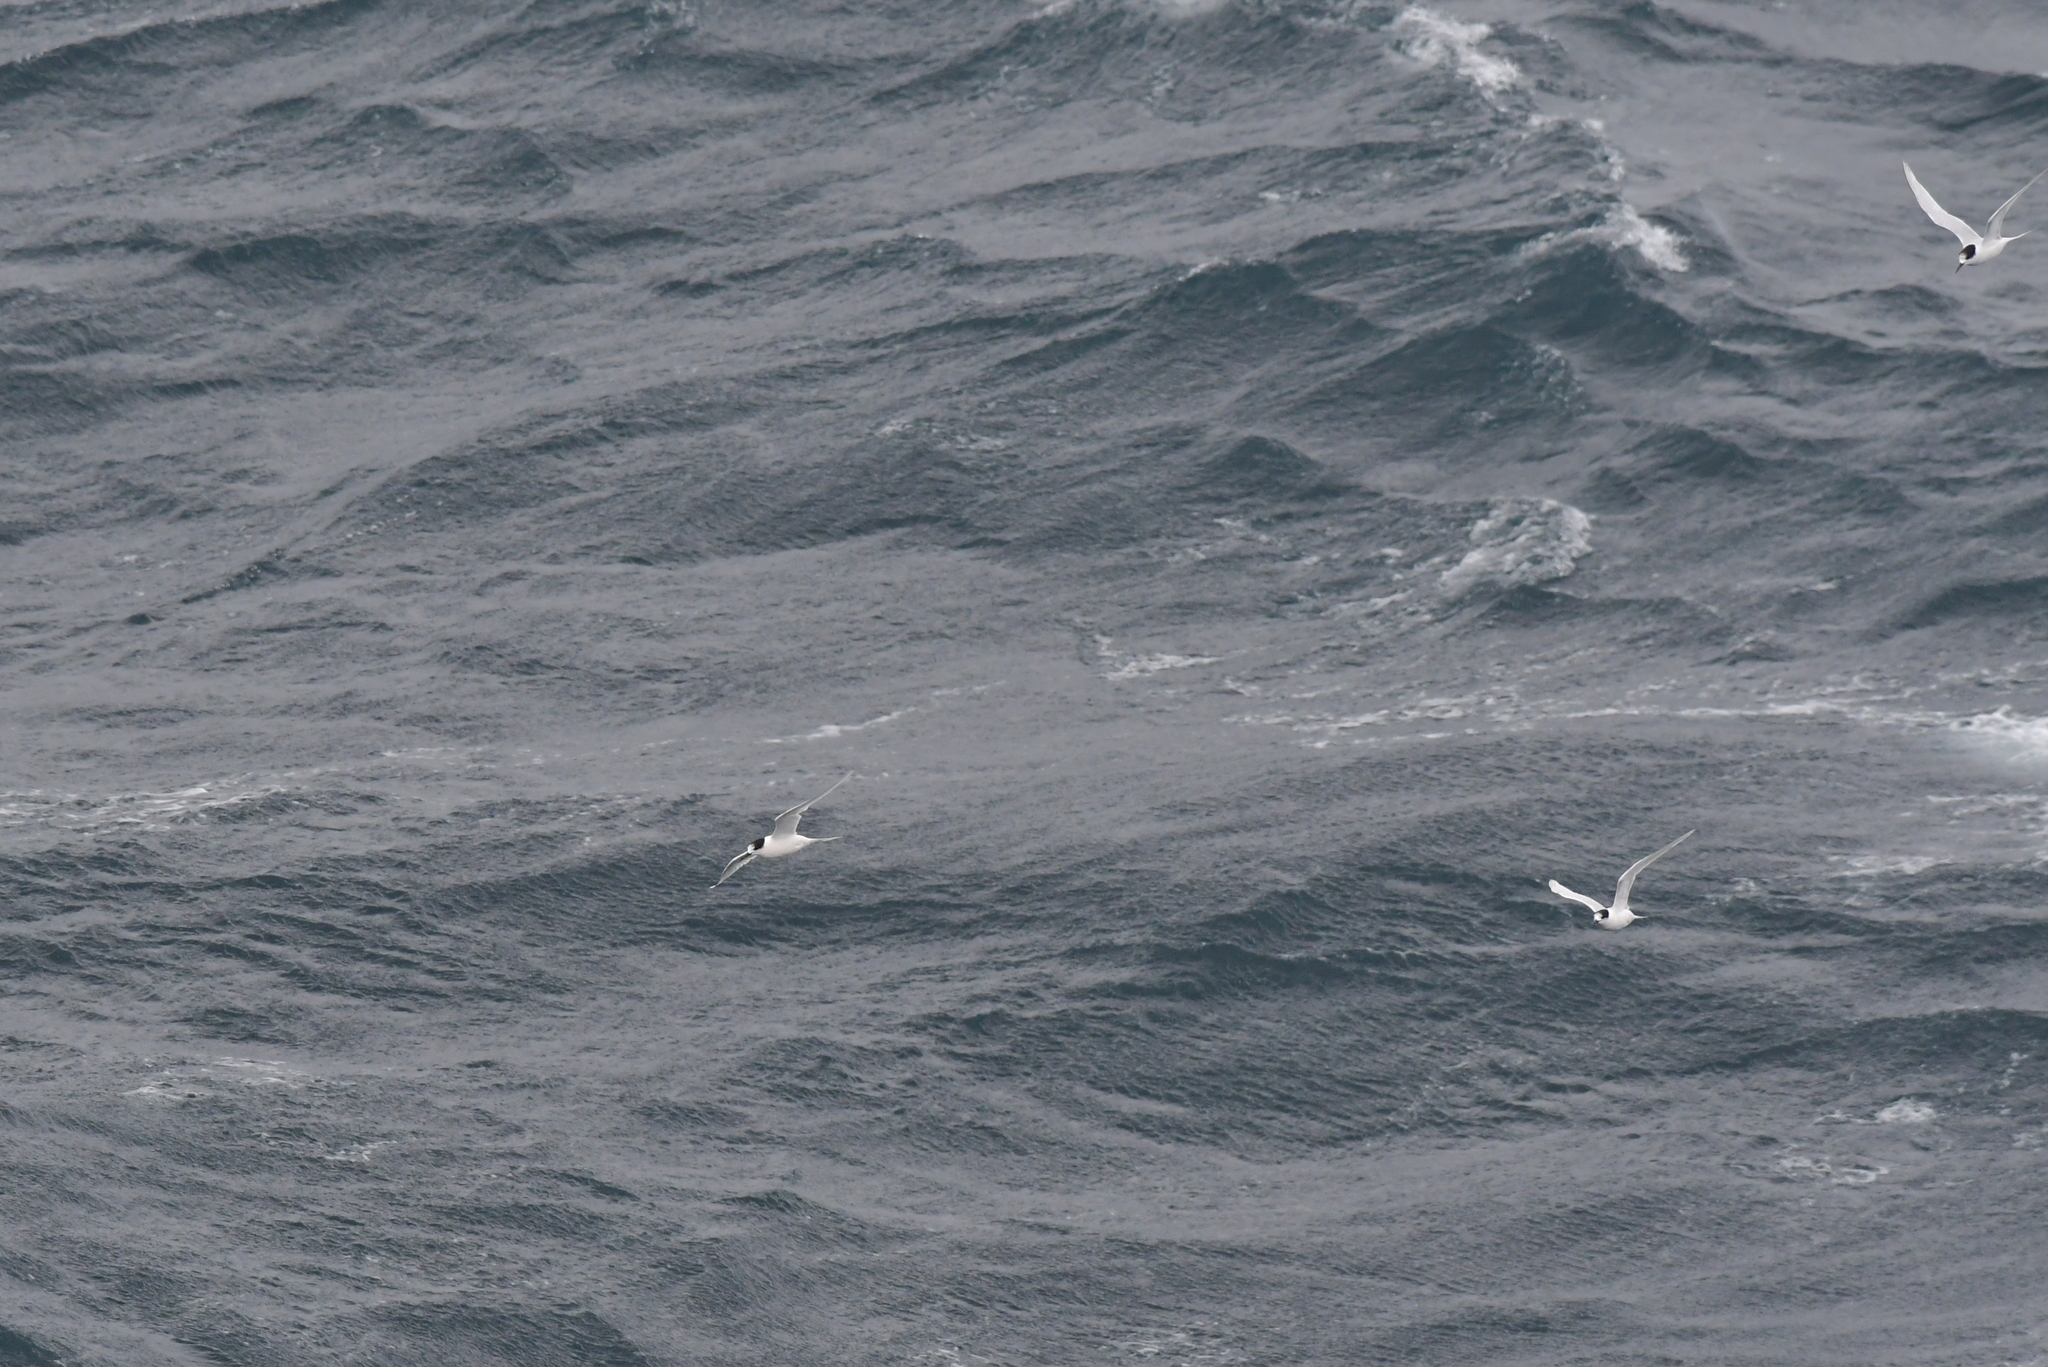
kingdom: Animalia
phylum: Chordata
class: Aves
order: Charadriiformes
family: Laridae
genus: Sterna
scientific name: Sterna striata
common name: White-fronted tern
